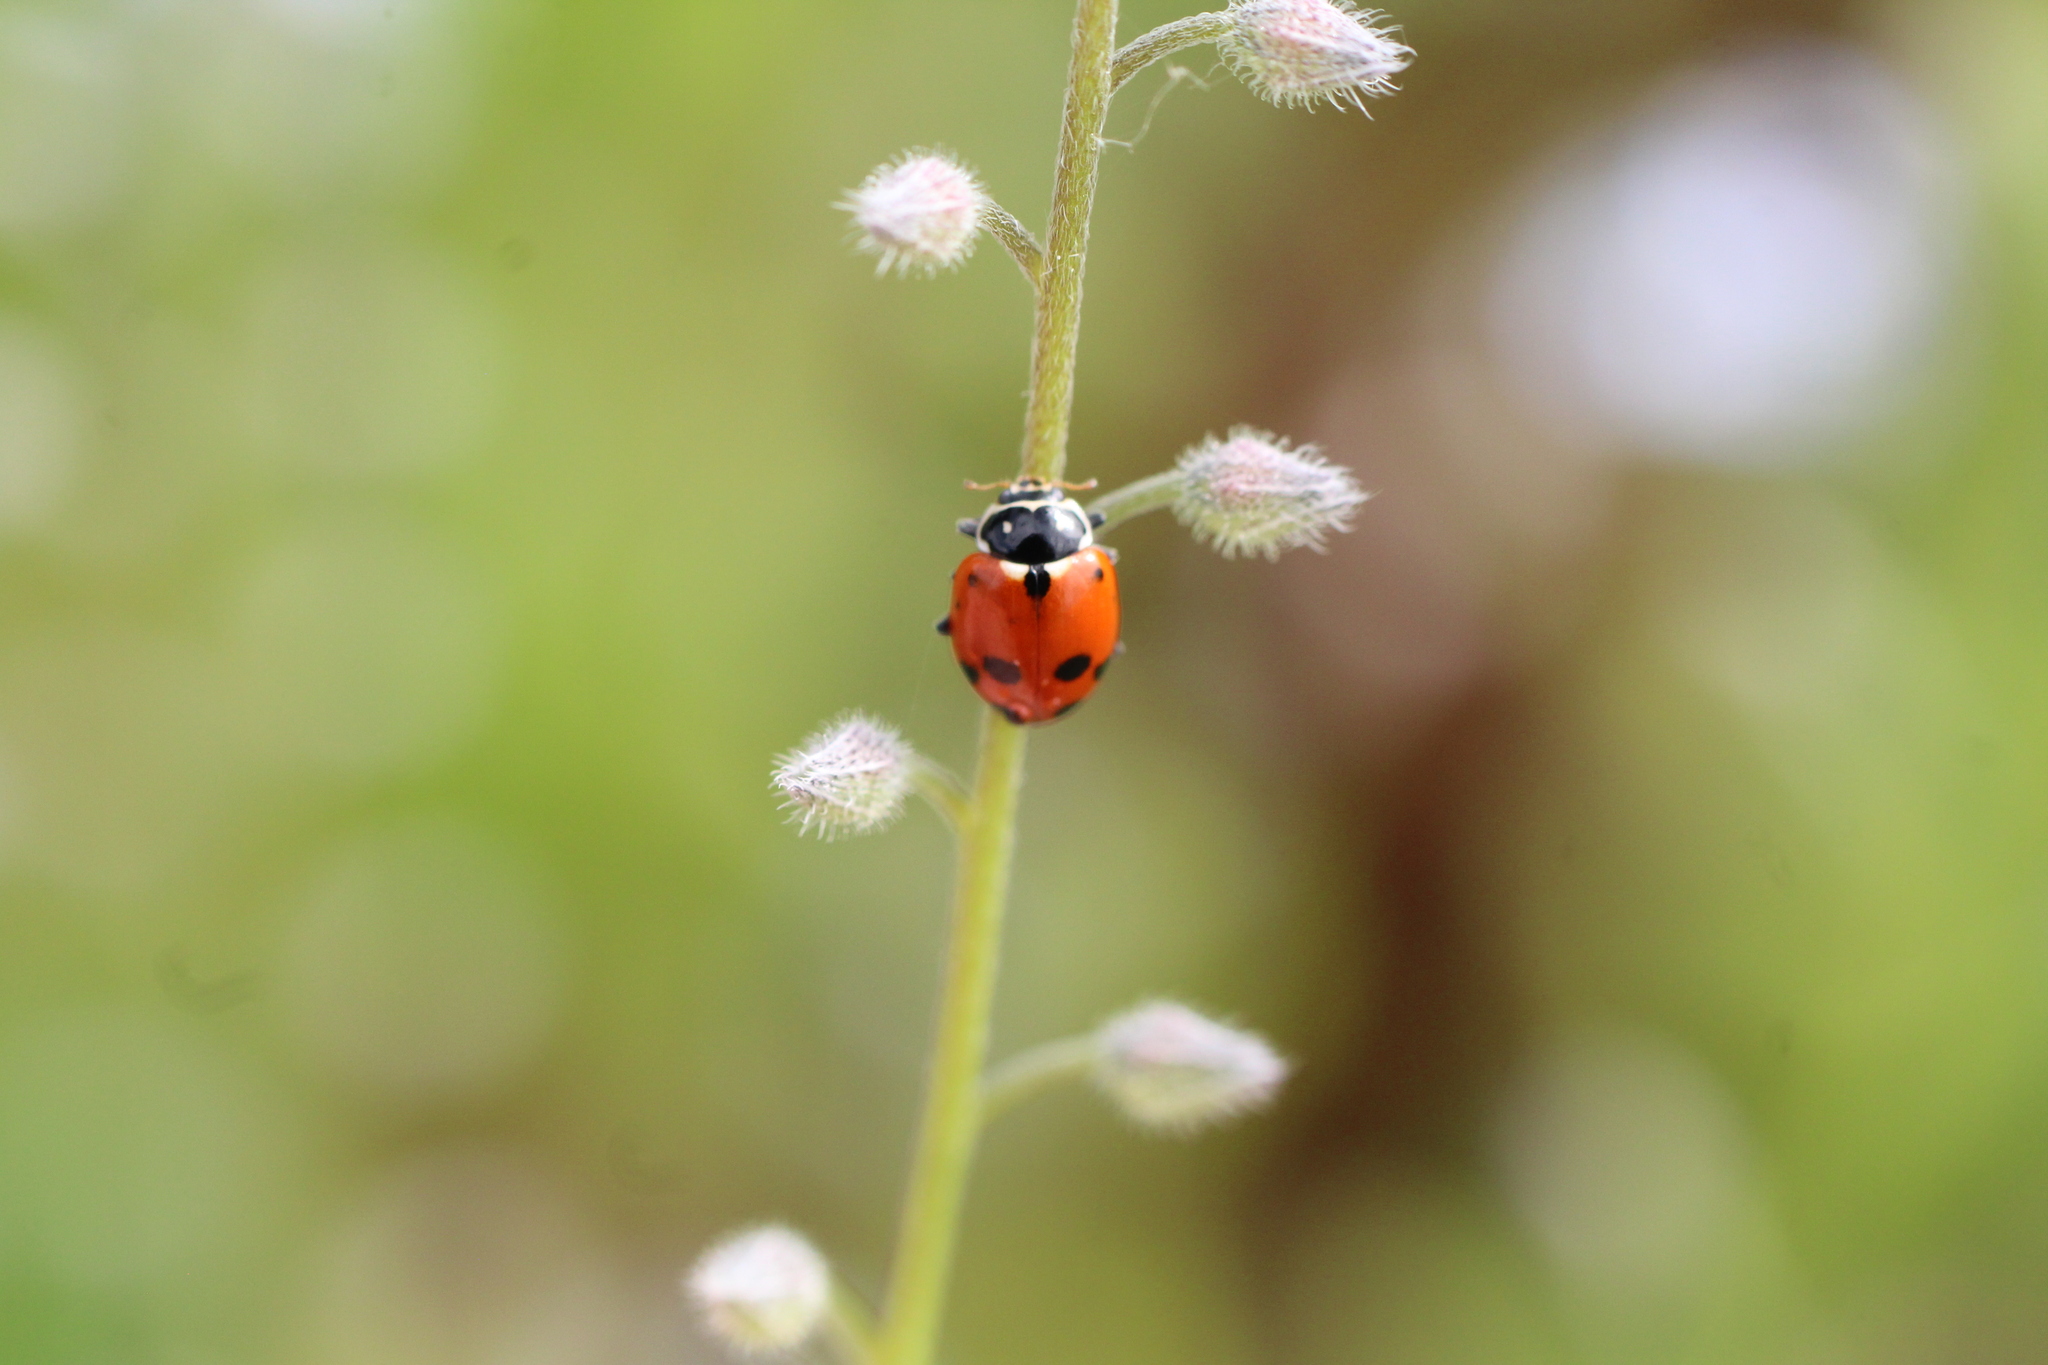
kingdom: Animalia
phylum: Arthropoda
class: Insecta
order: Coleoptera
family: Coccinellidae
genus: Hippodamia
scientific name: Hippodamia variegata
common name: Ladybird beetle
